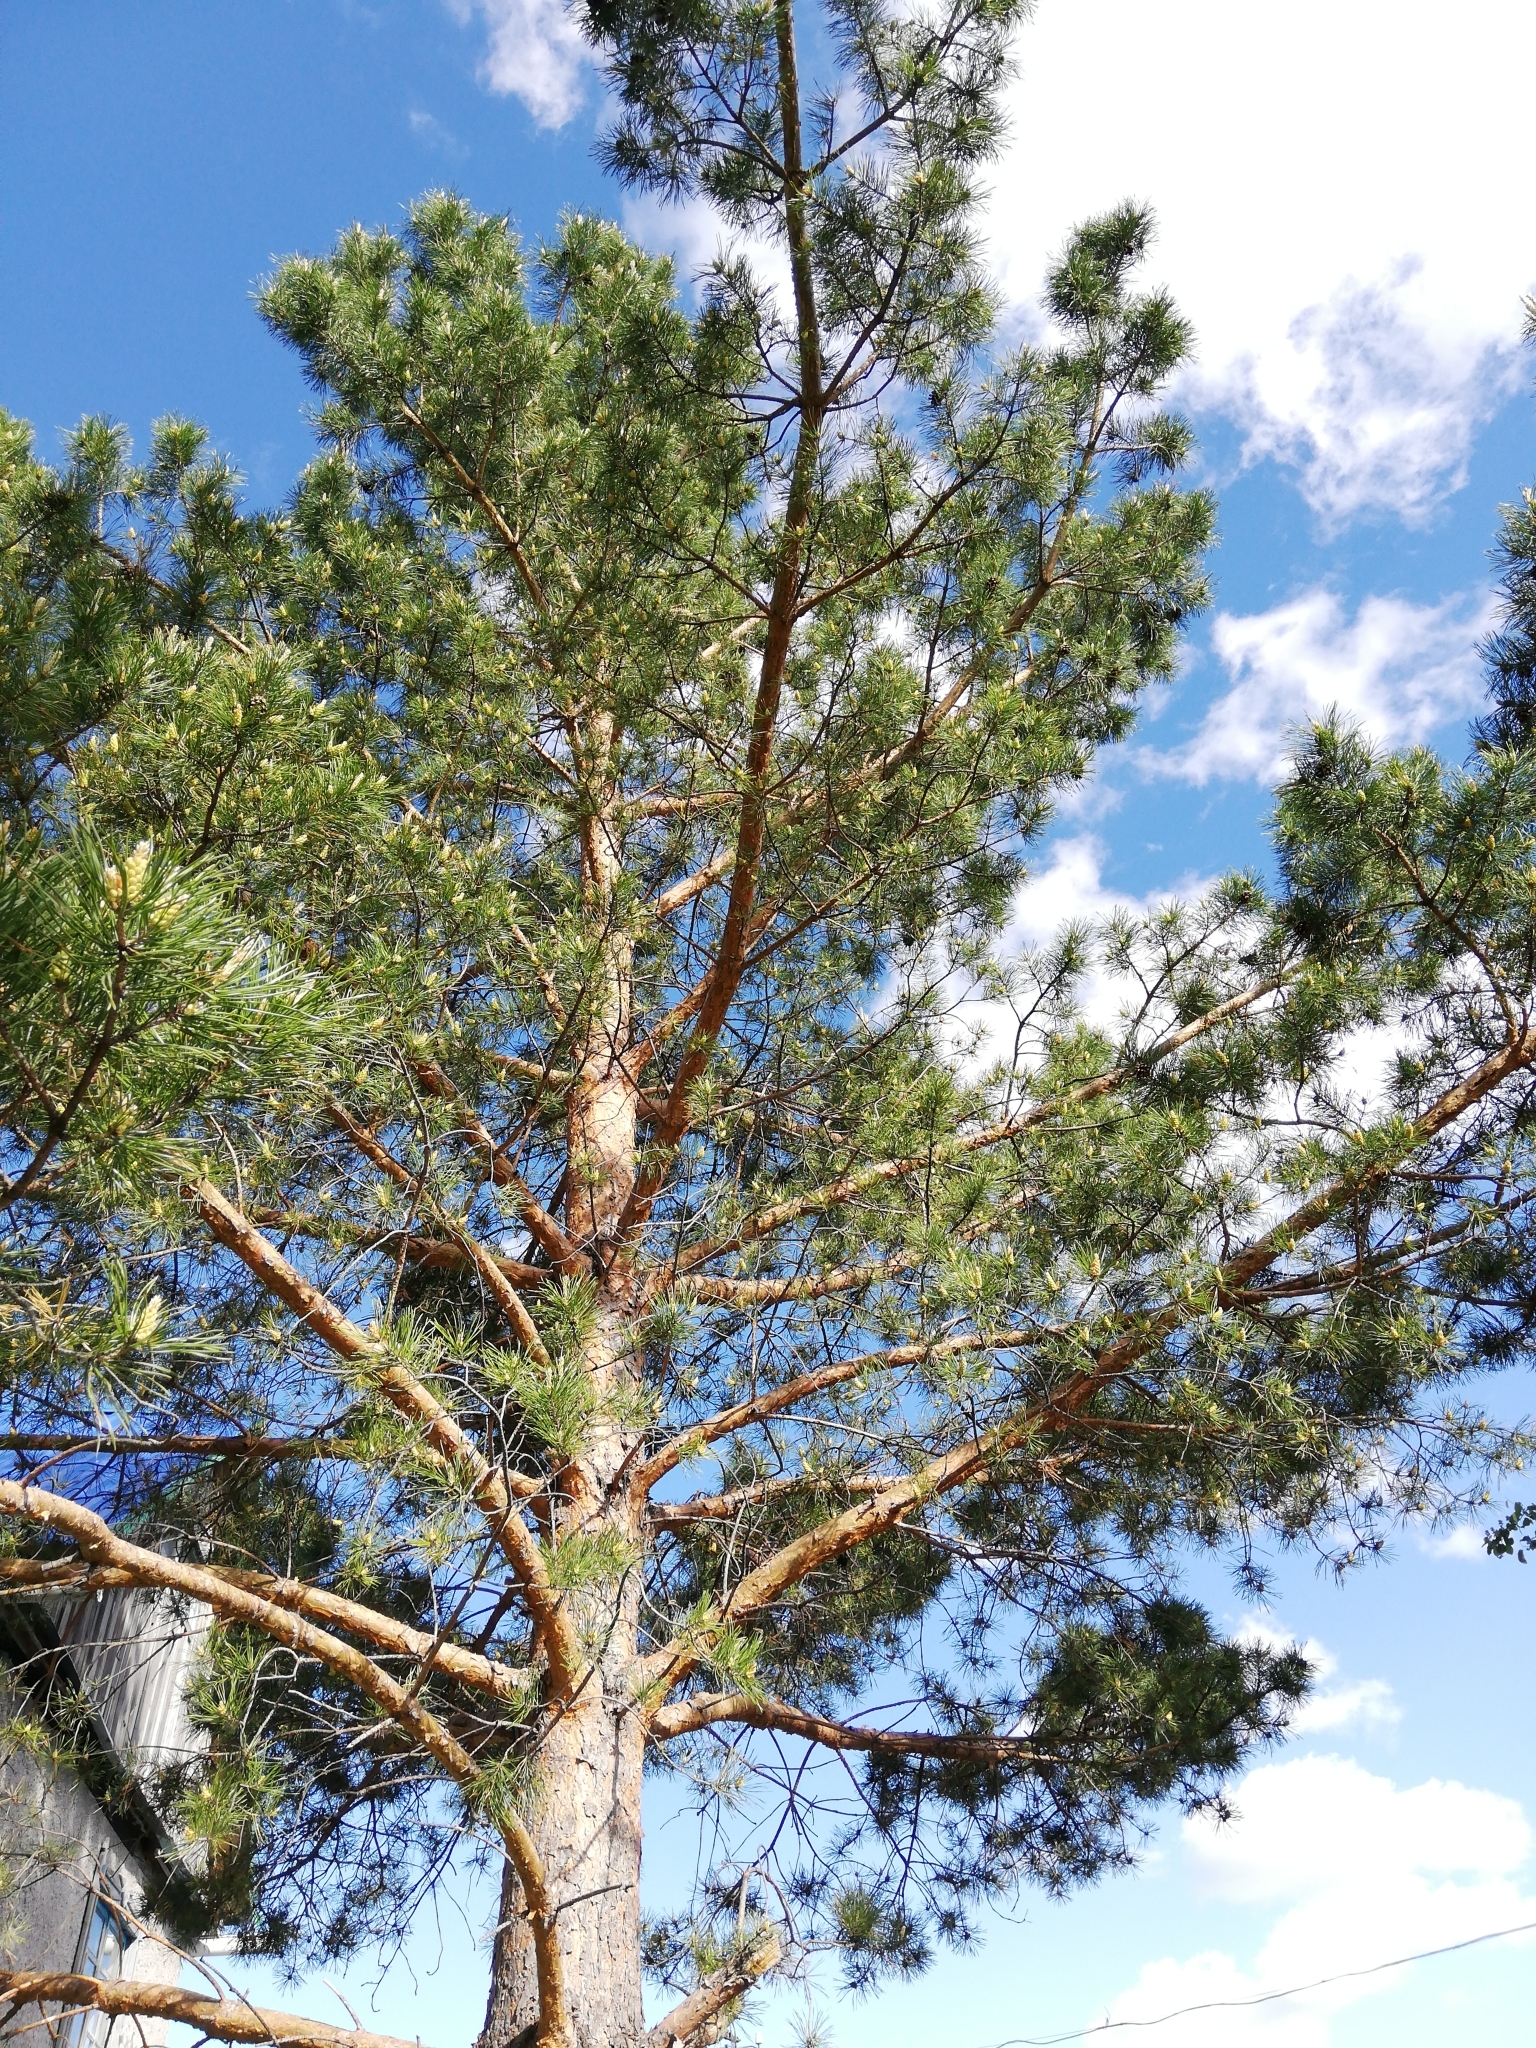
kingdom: Plantae
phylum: Tracheophyta
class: Pinopsida
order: Pinales
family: Pinaceae
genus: Pinus
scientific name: Pinus sylvestris
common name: Scots pine
